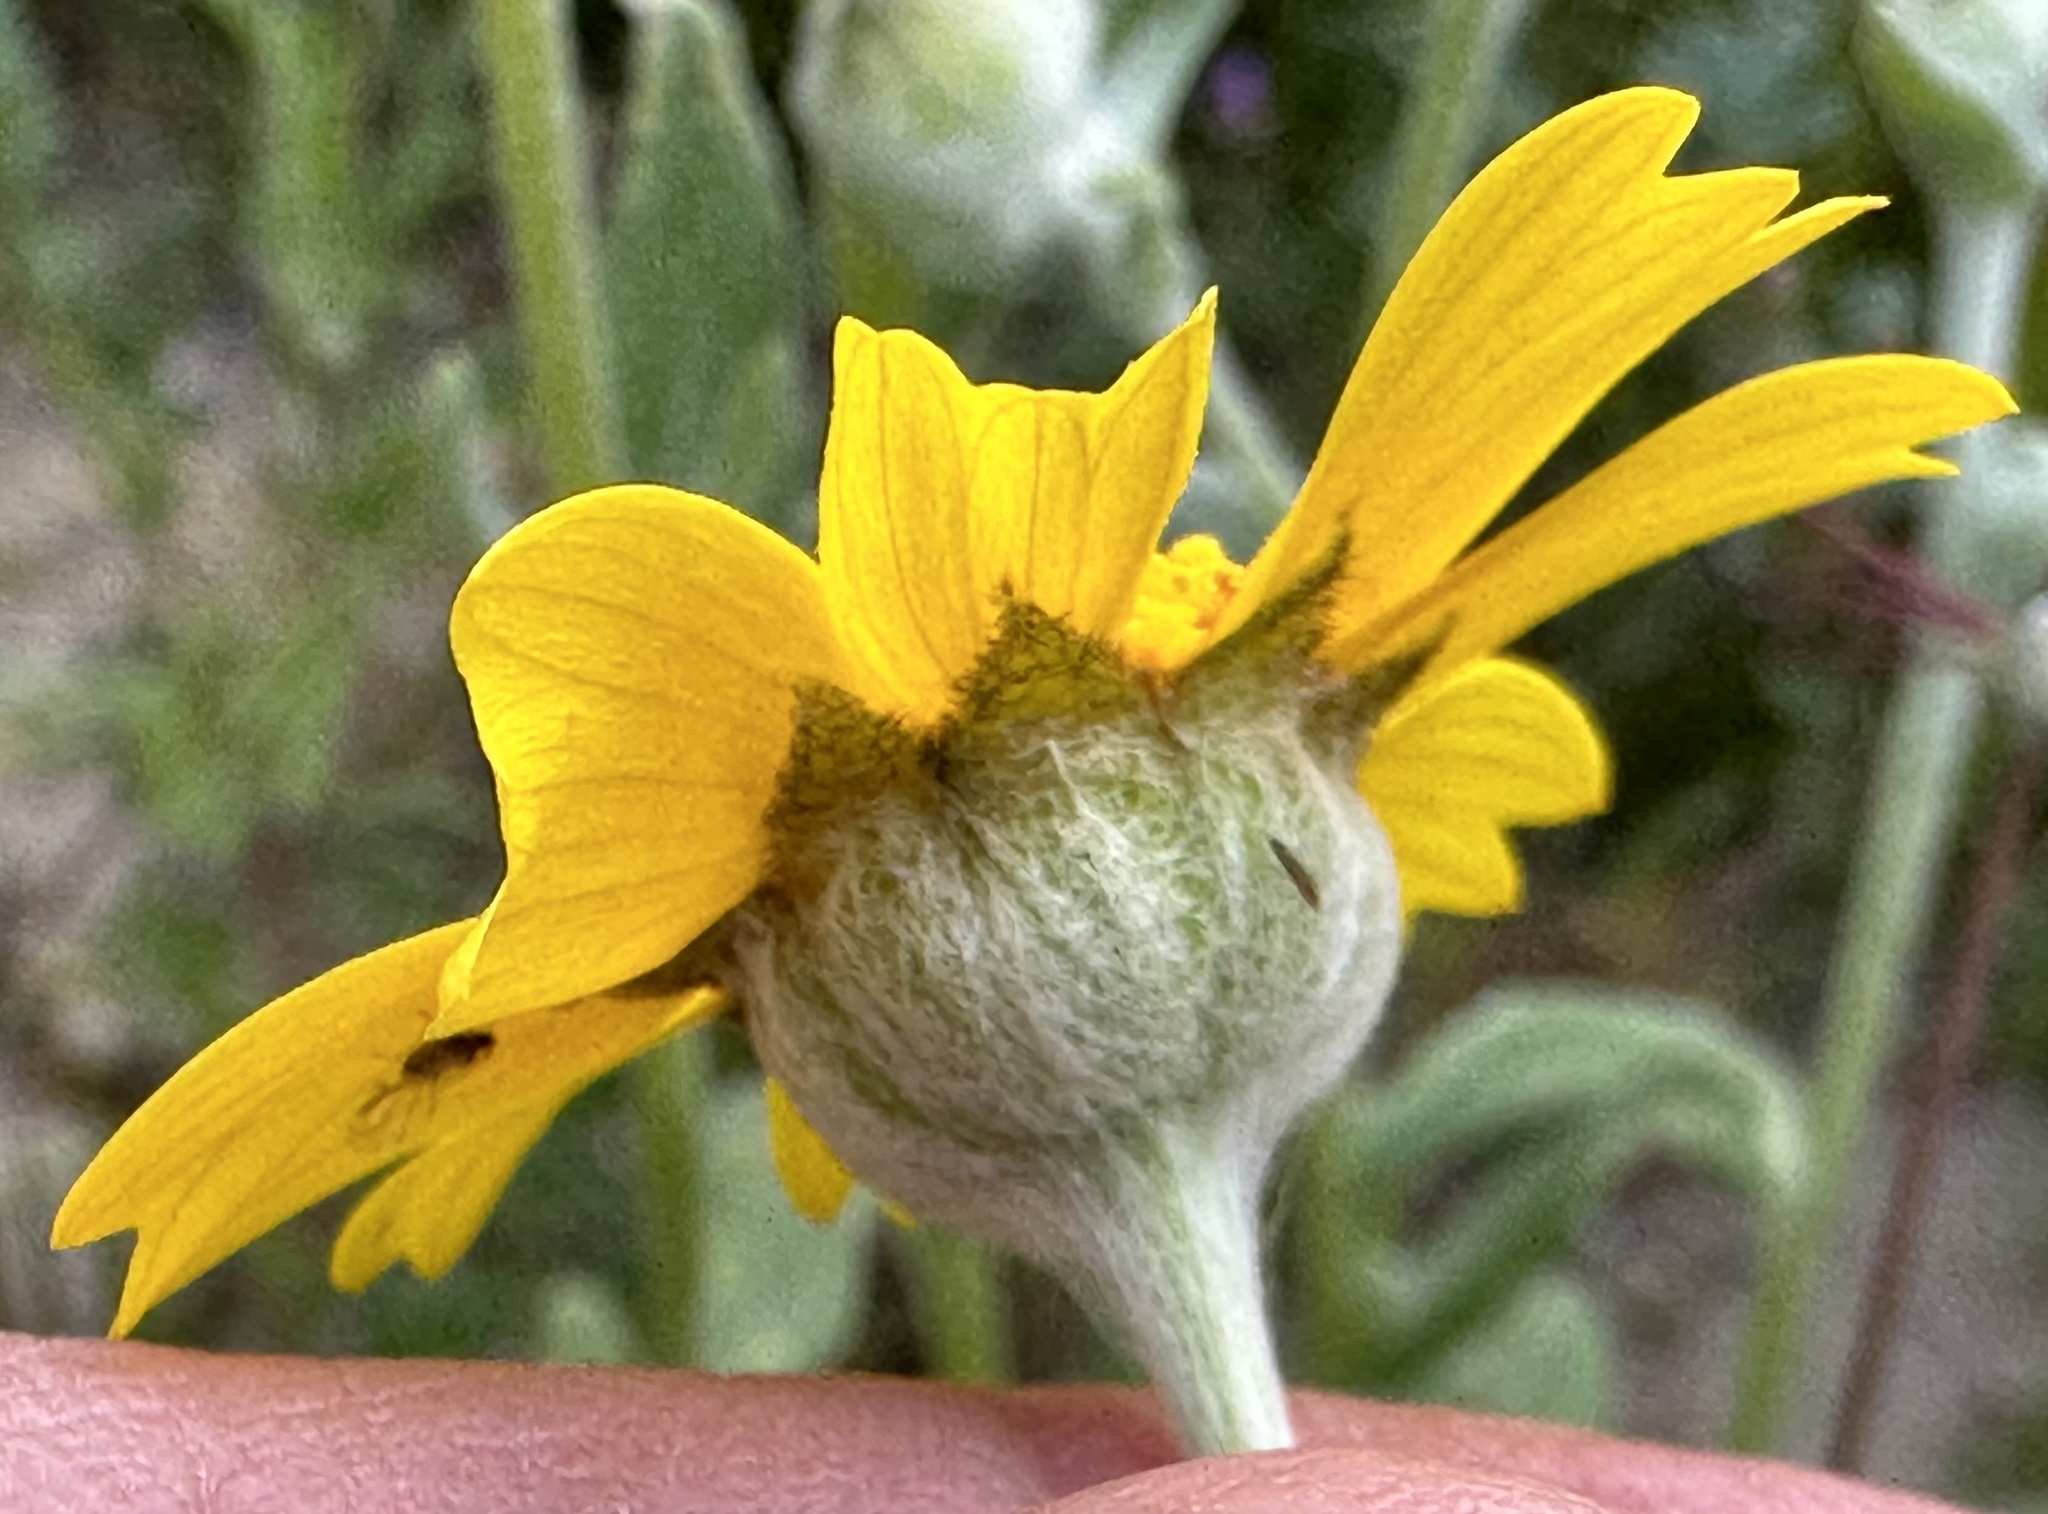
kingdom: Plantae
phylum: Tracheophyta
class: Magnoliopsida
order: Asterales
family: Asteraceae
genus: Monolopia
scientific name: Monolopia lanceolata
